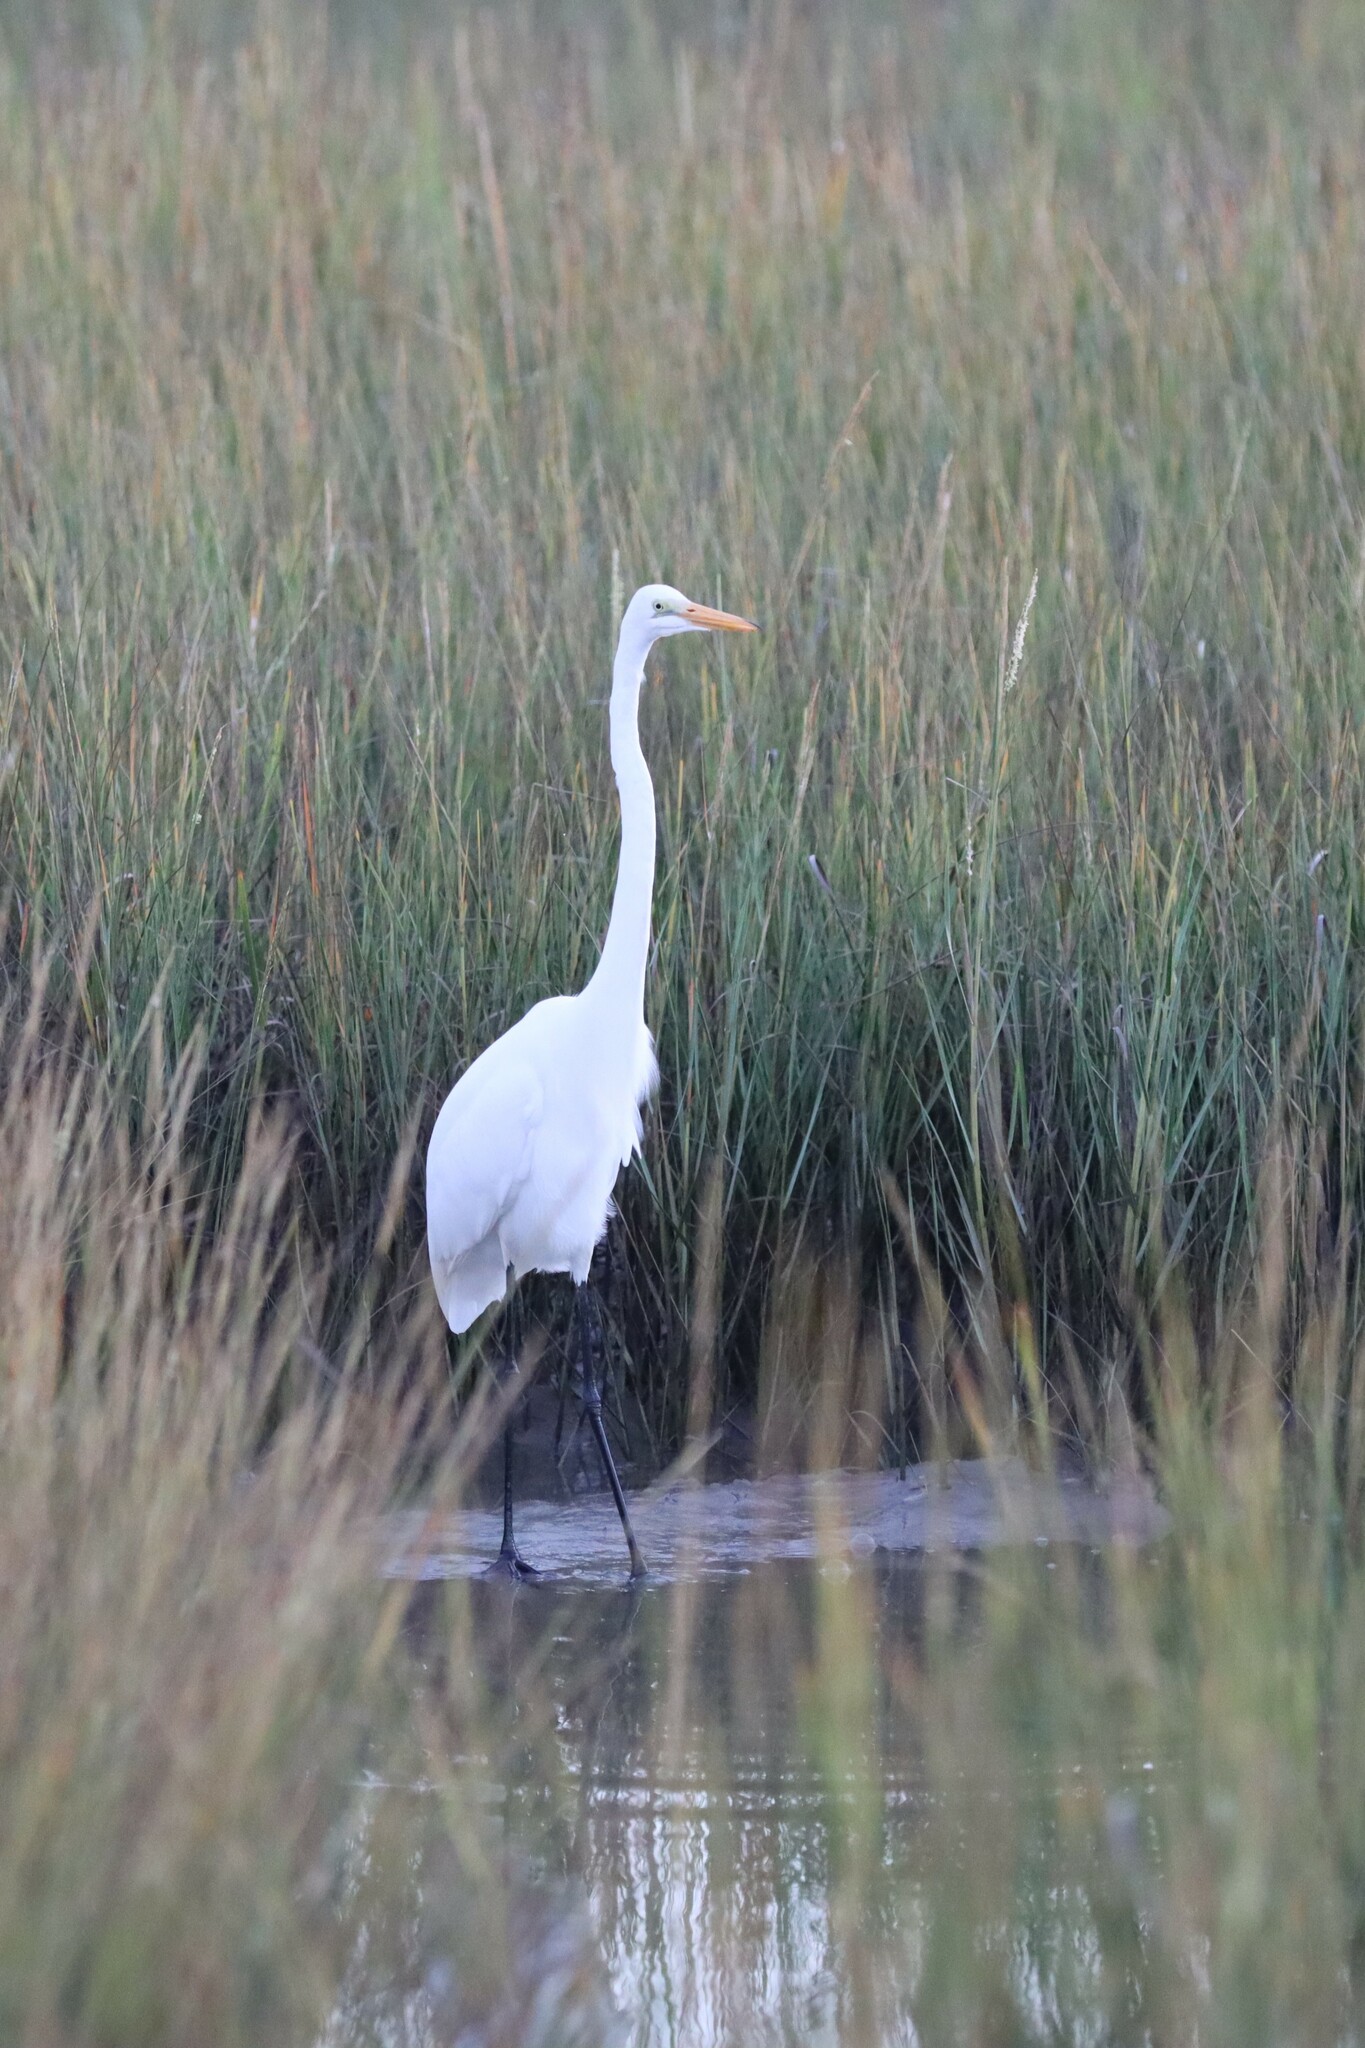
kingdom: Animalia
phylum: Chordata
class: Aves
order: Pelecaniformes
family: Ardeidae
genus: Ardea
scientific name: Ardea alba
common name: Great egret
